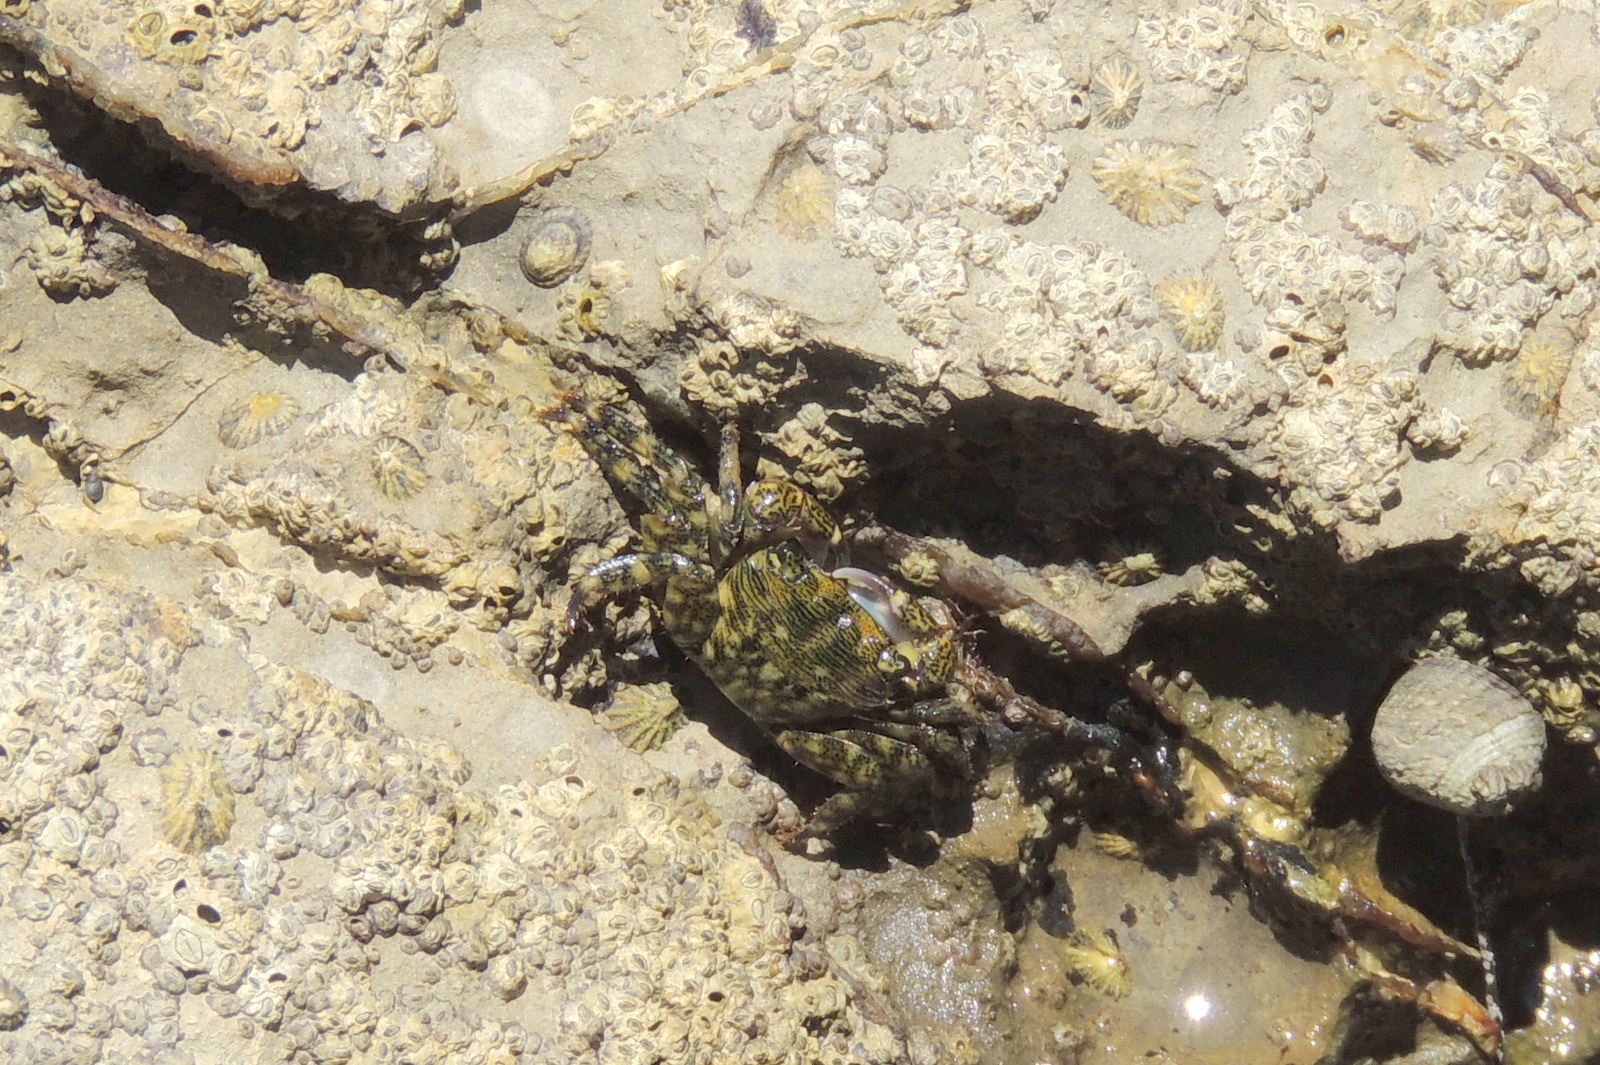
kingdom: Animalia
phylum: Arthropoda
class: Malacostraca
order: Decapoda
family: Grapsidae
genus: Pachygrapsus
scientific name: Pachygrapsus crassipes
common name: Striped shore crab
